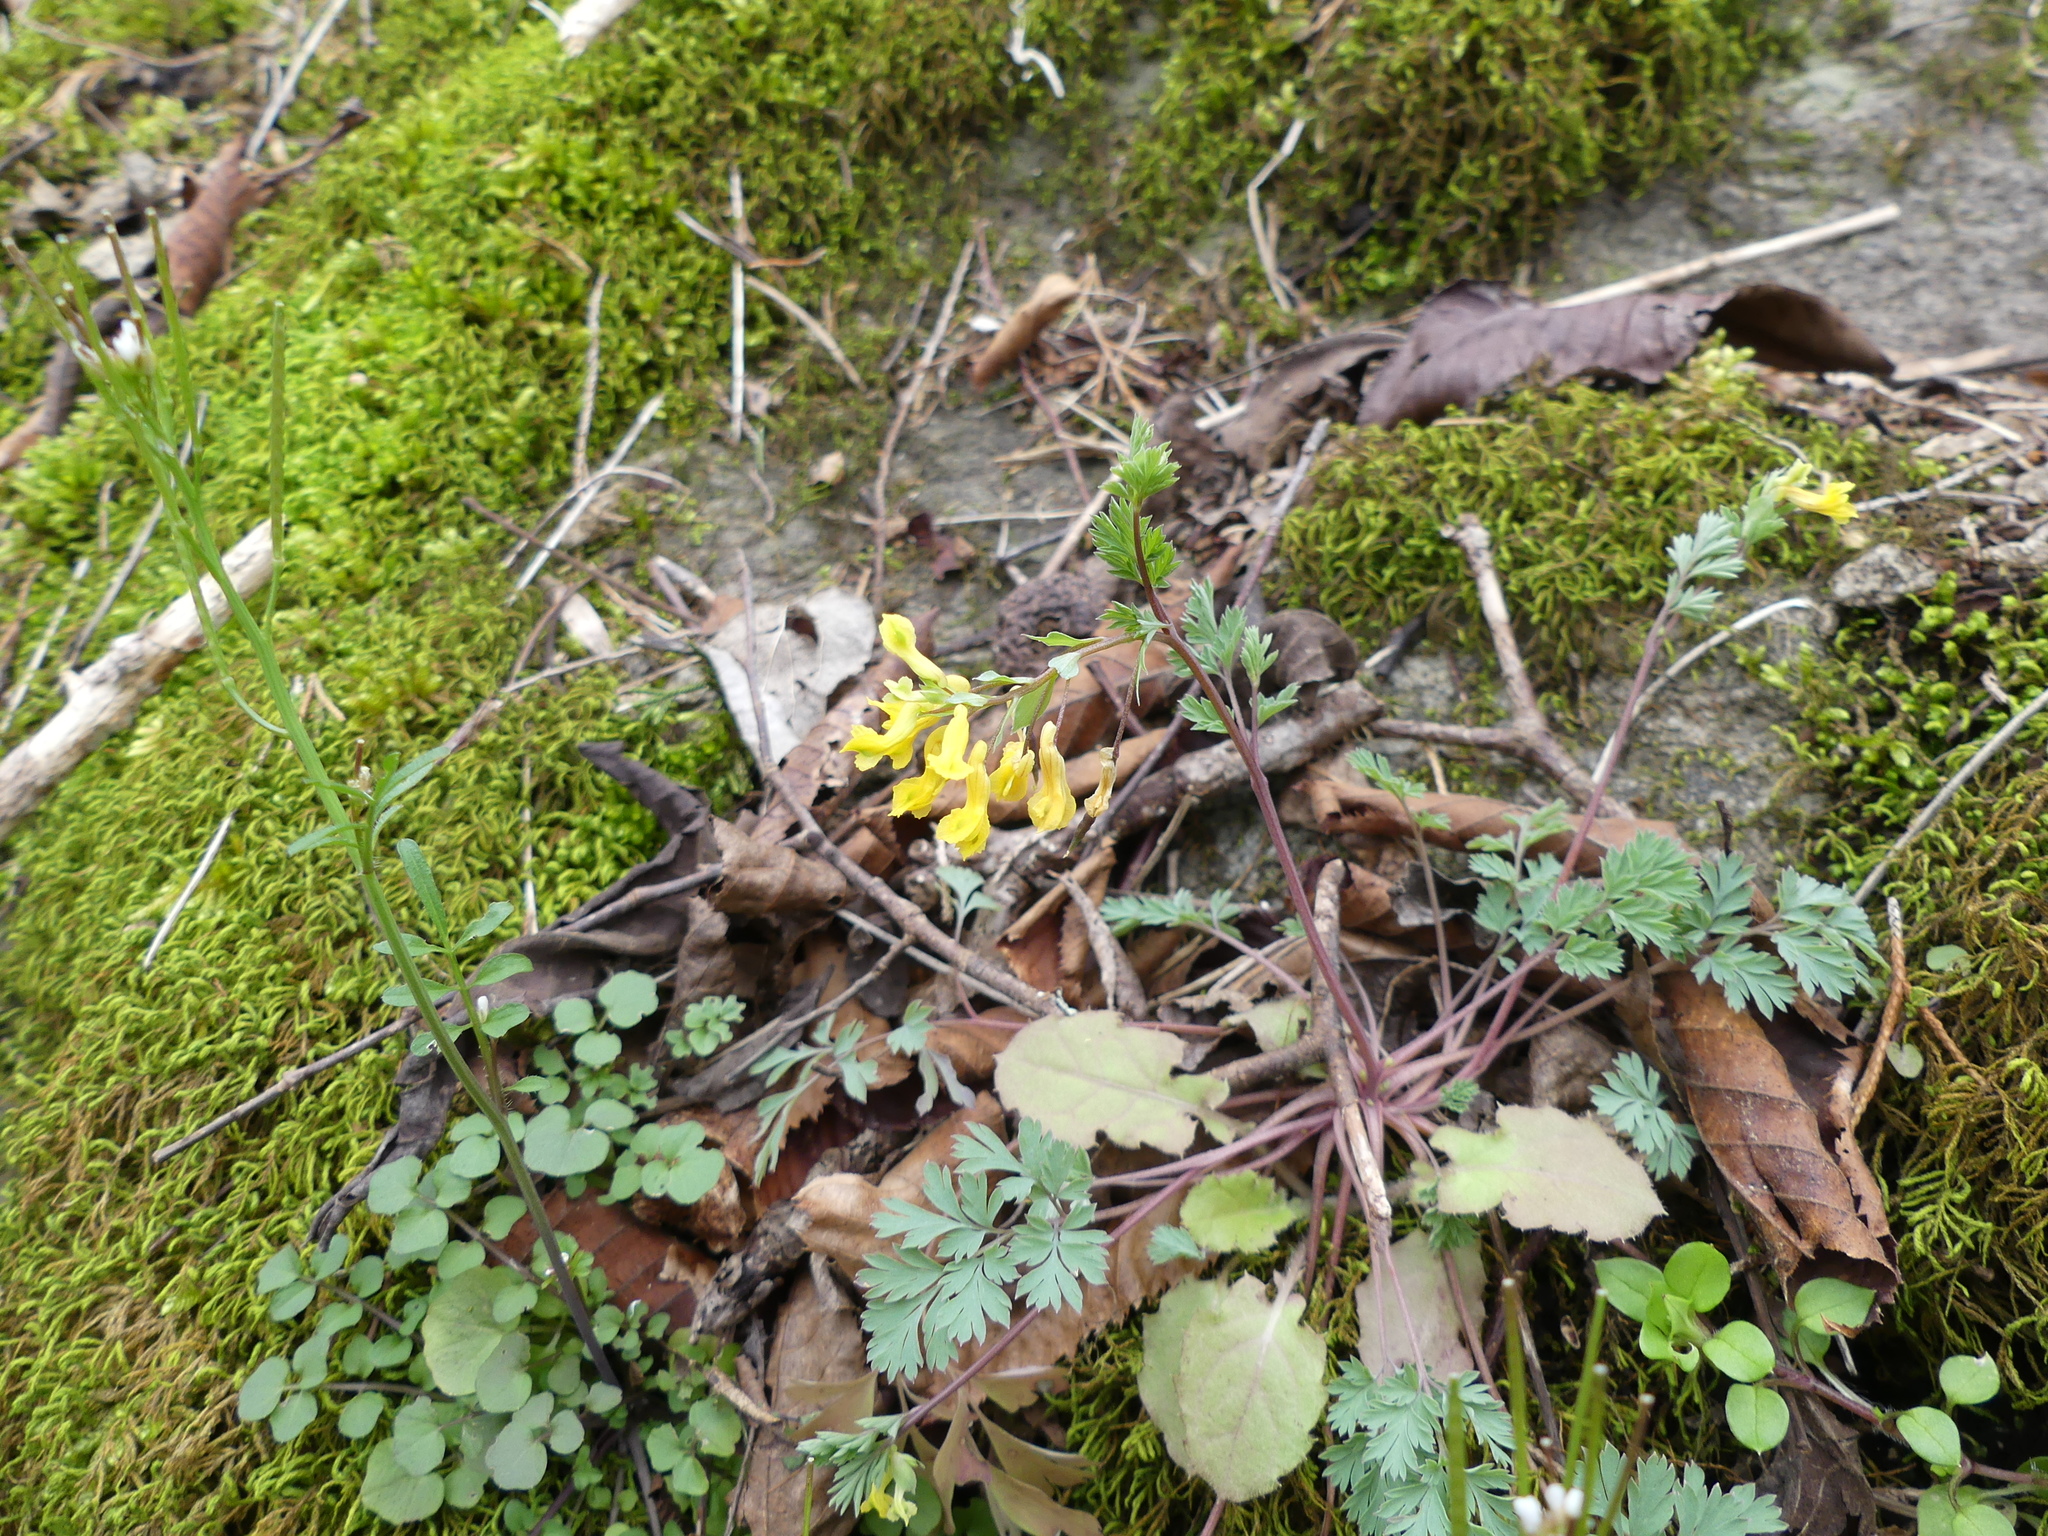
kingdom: Plantae
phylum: Tracheophyta
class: Magnoliopsida
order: Ranunculales
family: Papaveraceae
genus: Corydalis
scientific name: Corydalis flavula
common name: Yellow corydalis
